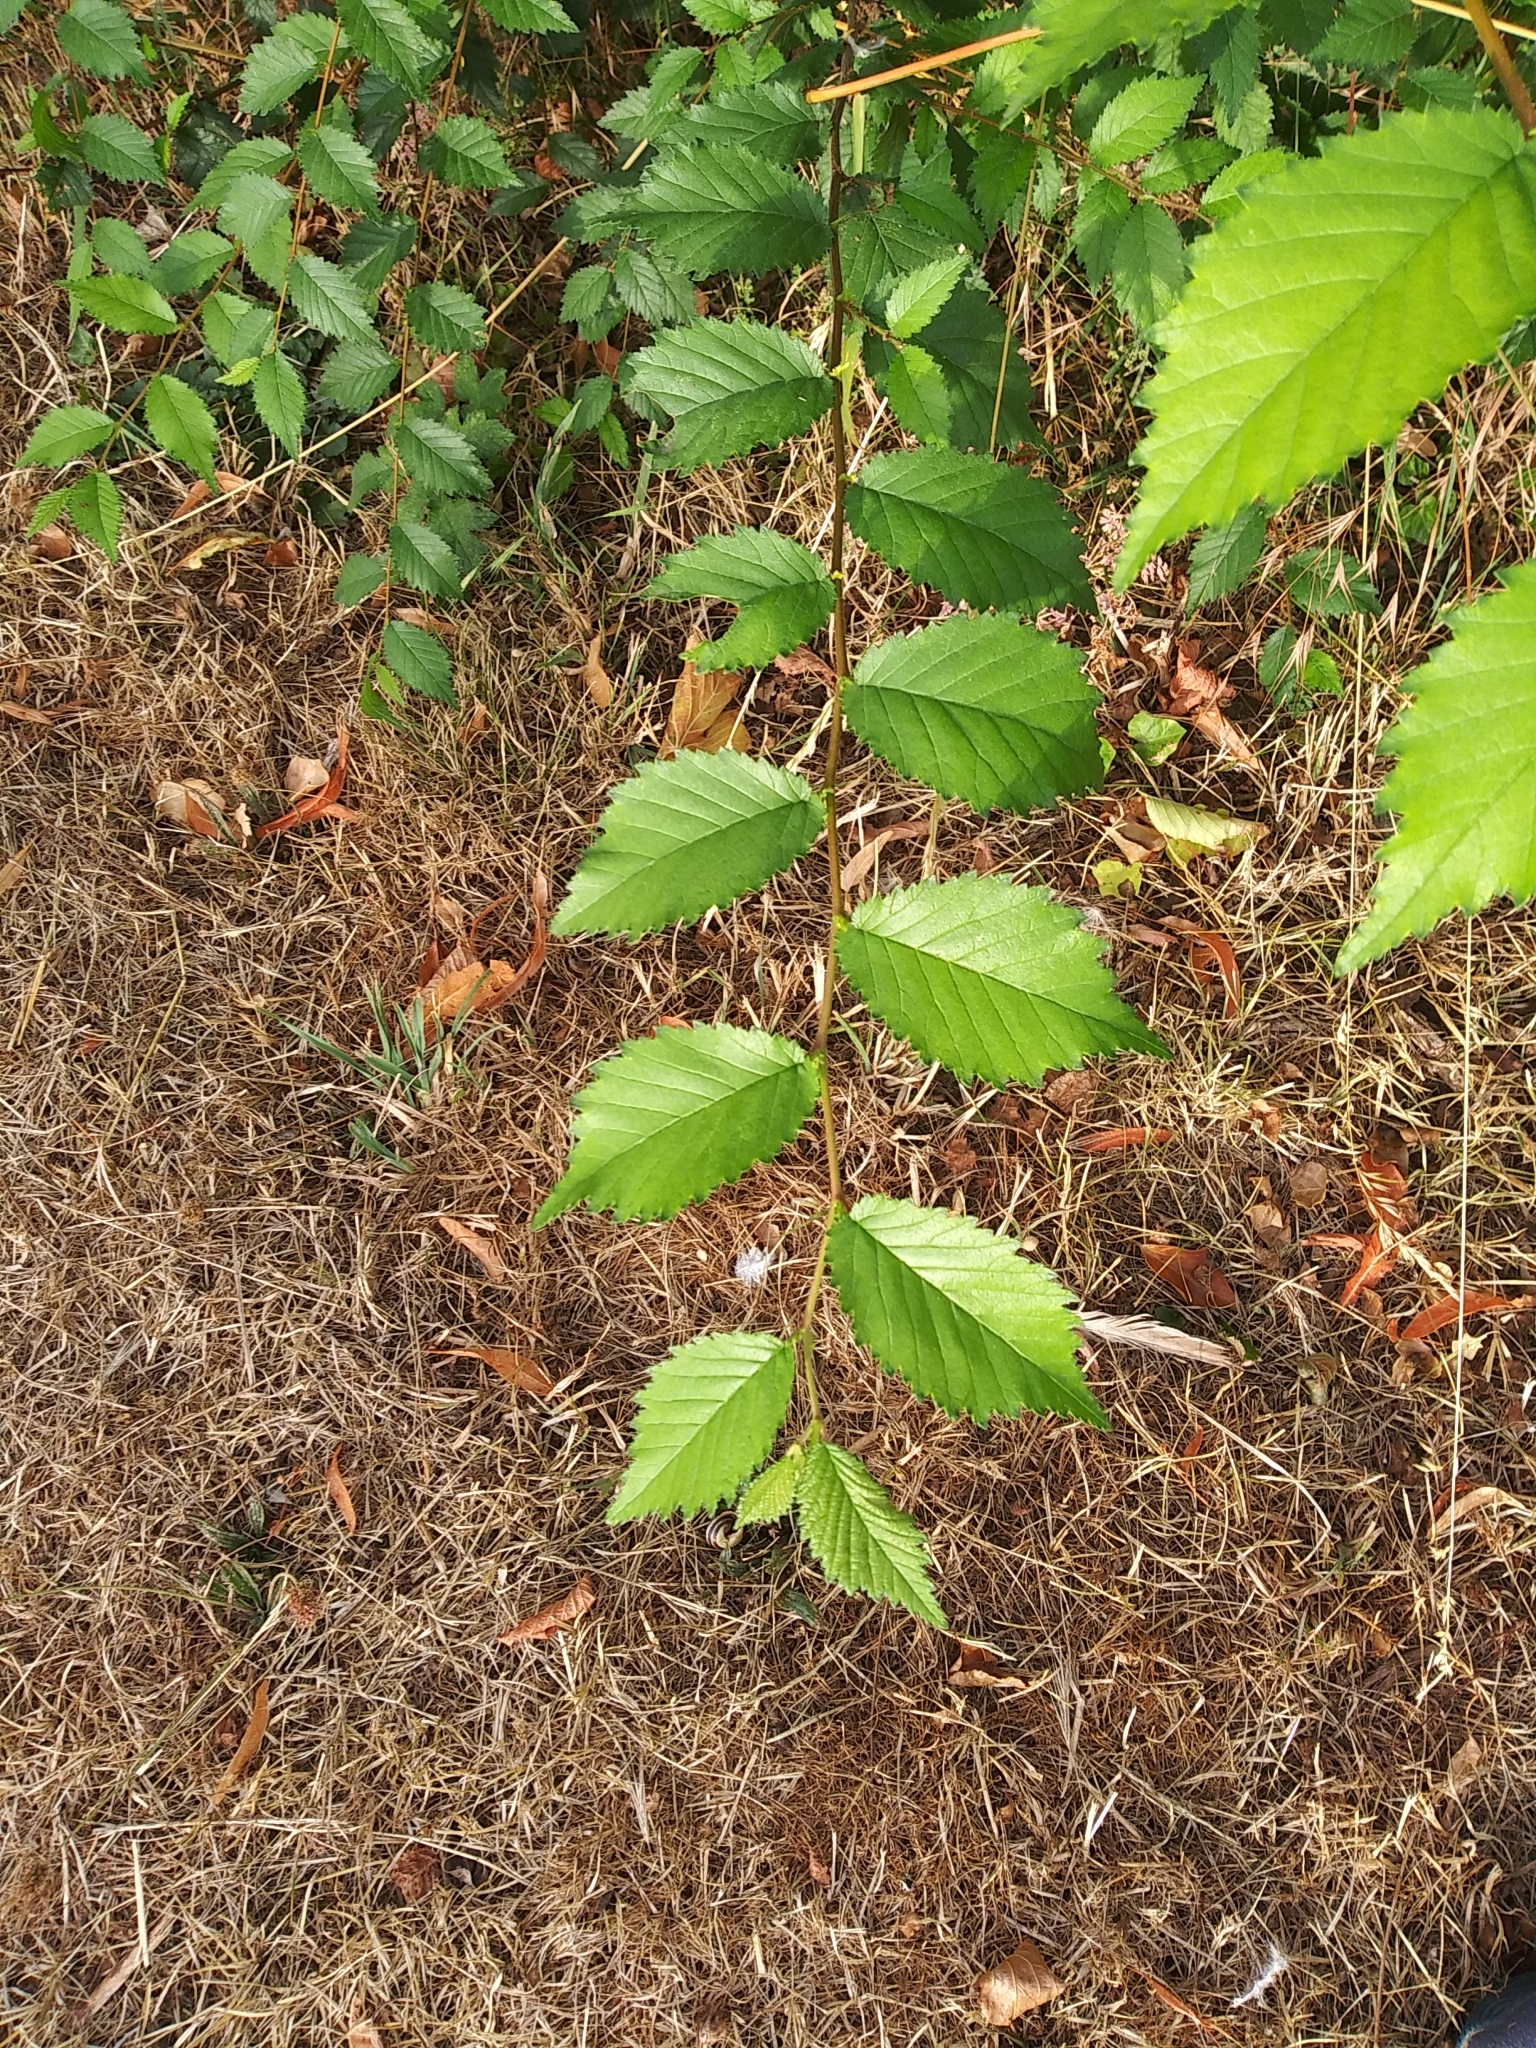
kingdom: Plantae
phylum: Tracheophyta
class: Magnoliopsida
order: Rosales
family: Ulmaceae
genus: Ulmus
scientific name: Ulmus minor
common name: Small-leaved elm
